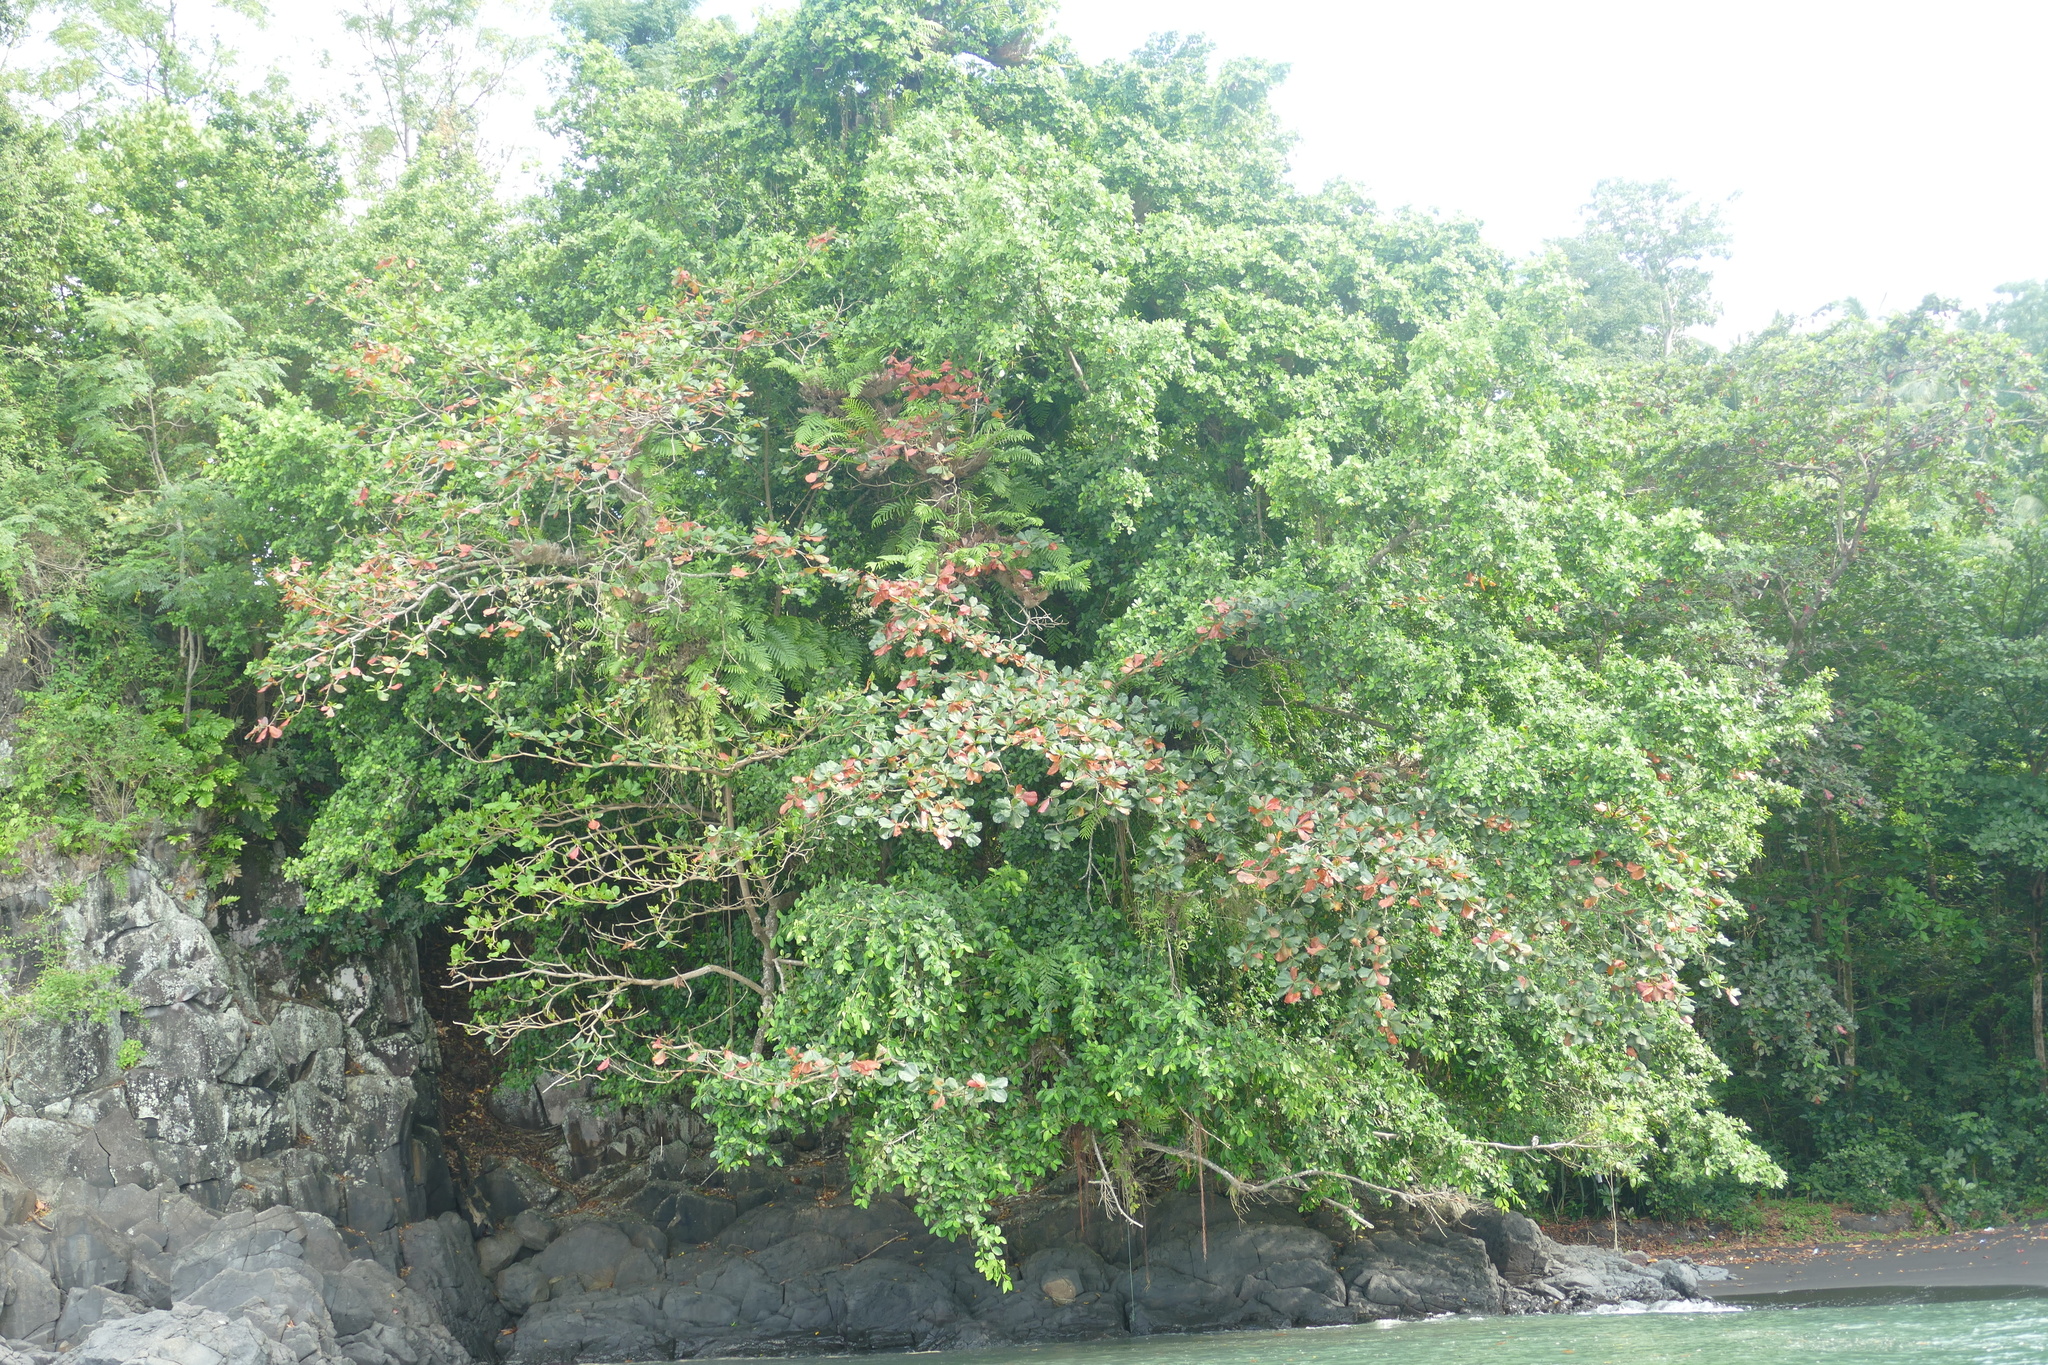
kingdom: Plantae
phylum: Tracheophyta
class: Magnoliopsida
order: Myrtales
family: Combretaceae
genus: Terminalia
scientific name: Terminalia catappa
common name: Tropical almond
